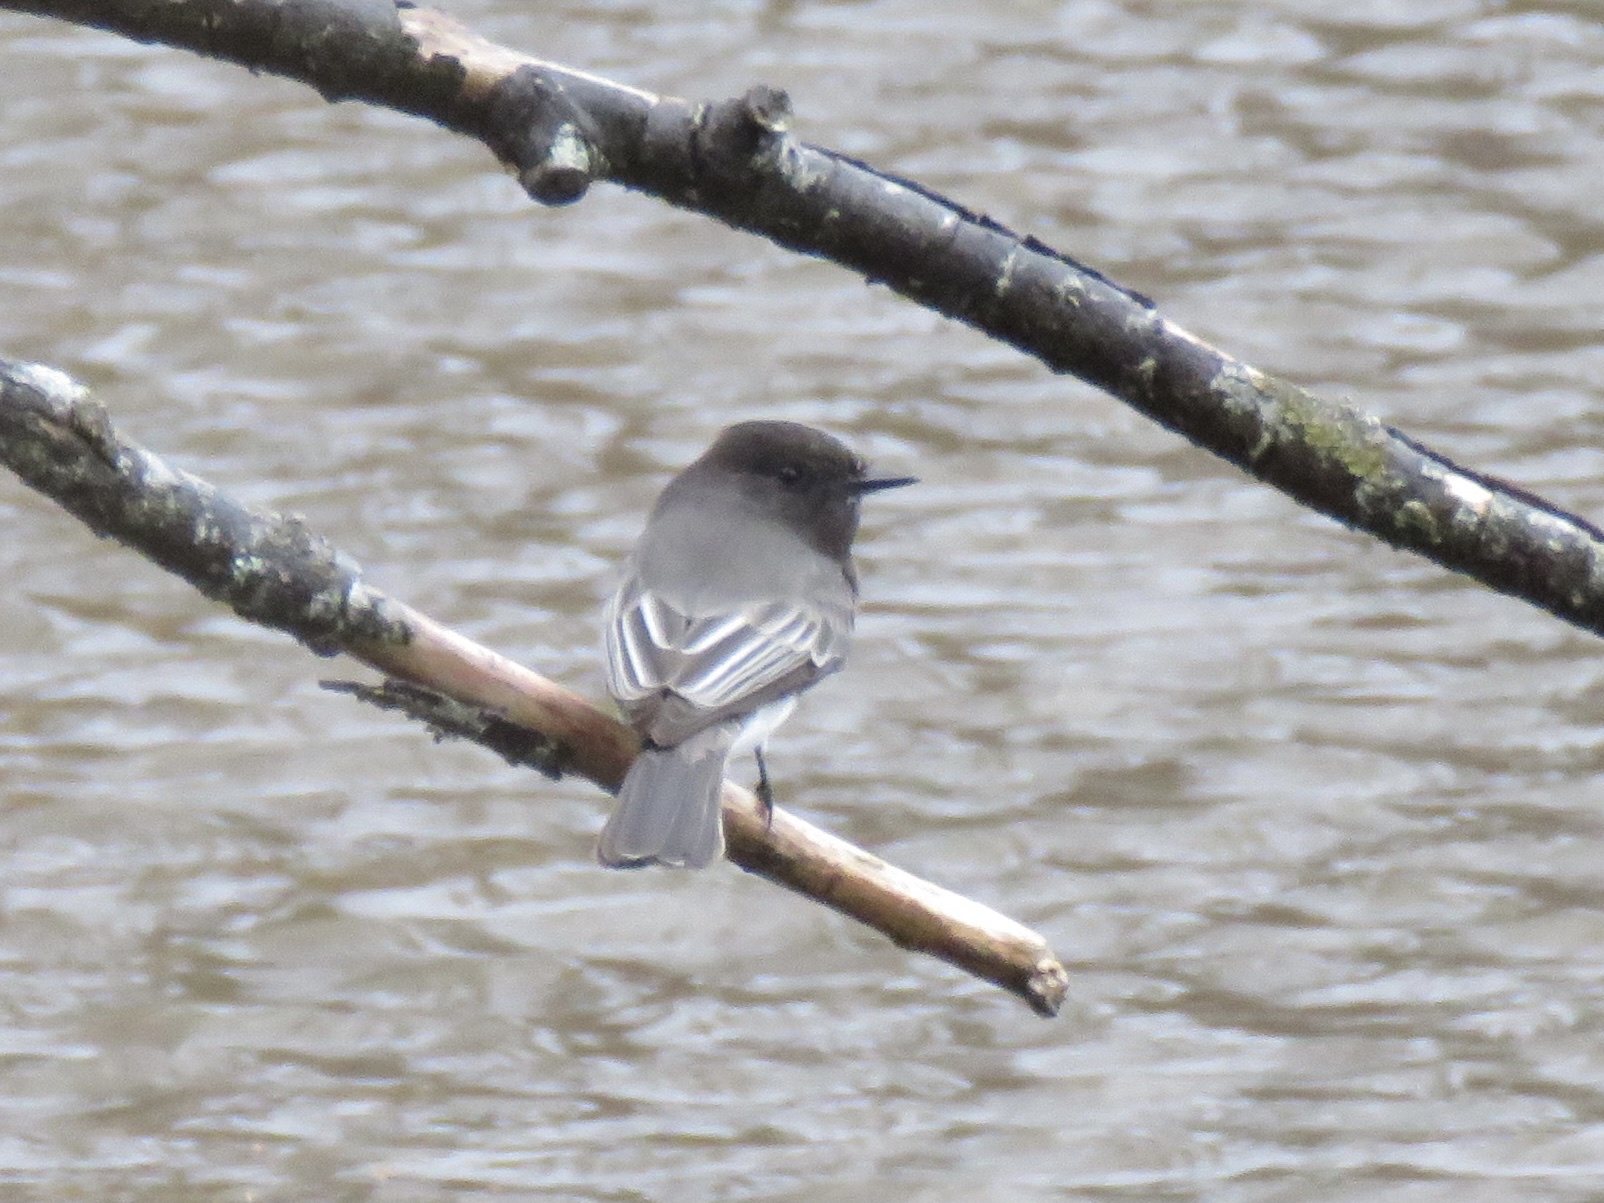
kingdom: Animalia
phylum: Chordata
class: Aves
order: Passeriformes
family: Tyrannidae
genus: Sayornis
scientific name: Sayornis nigricans
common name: Black phoebe
